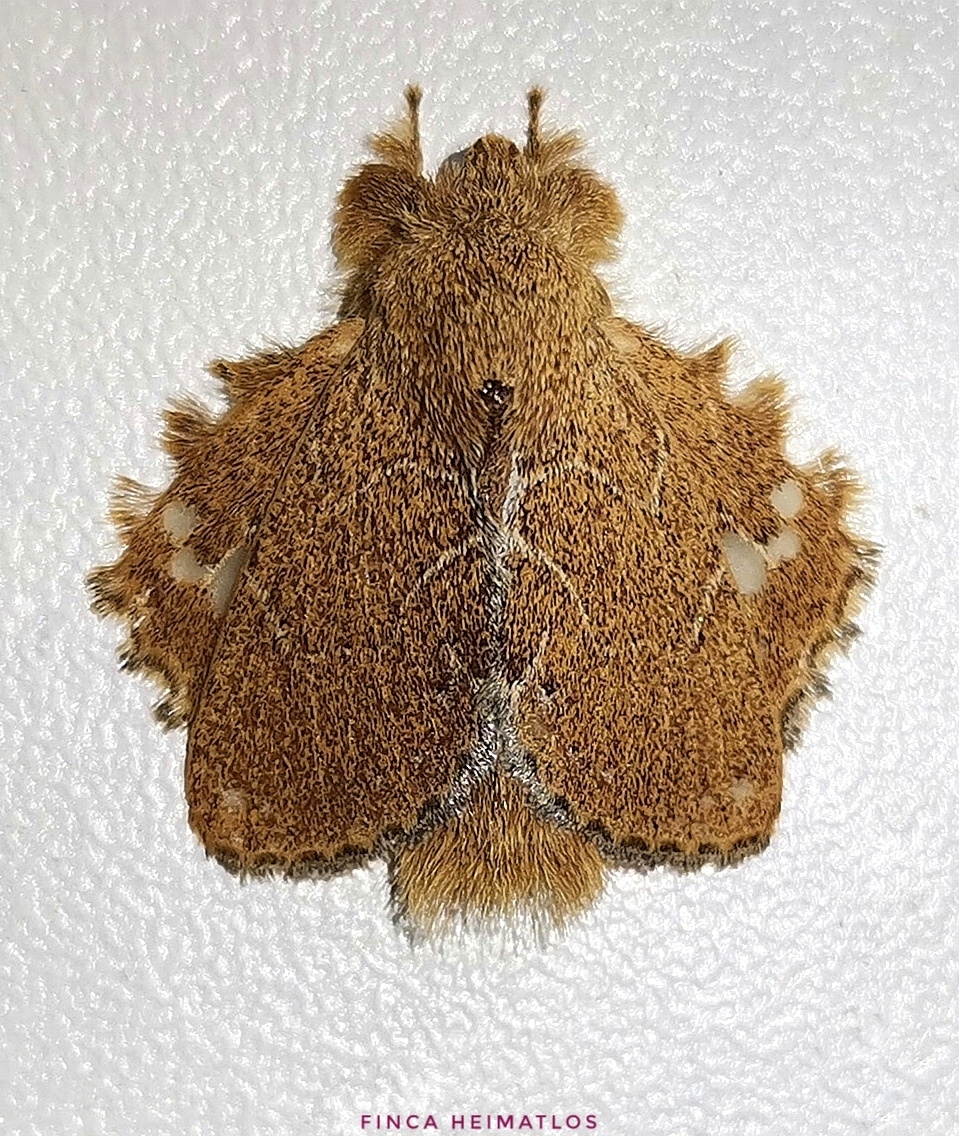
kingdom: Animalia
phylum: Arthropoda
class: Insecta
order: Lepidoptera
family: Lasiocampidae
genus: Euglyphis
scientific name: Euglyphis vitripuncta
